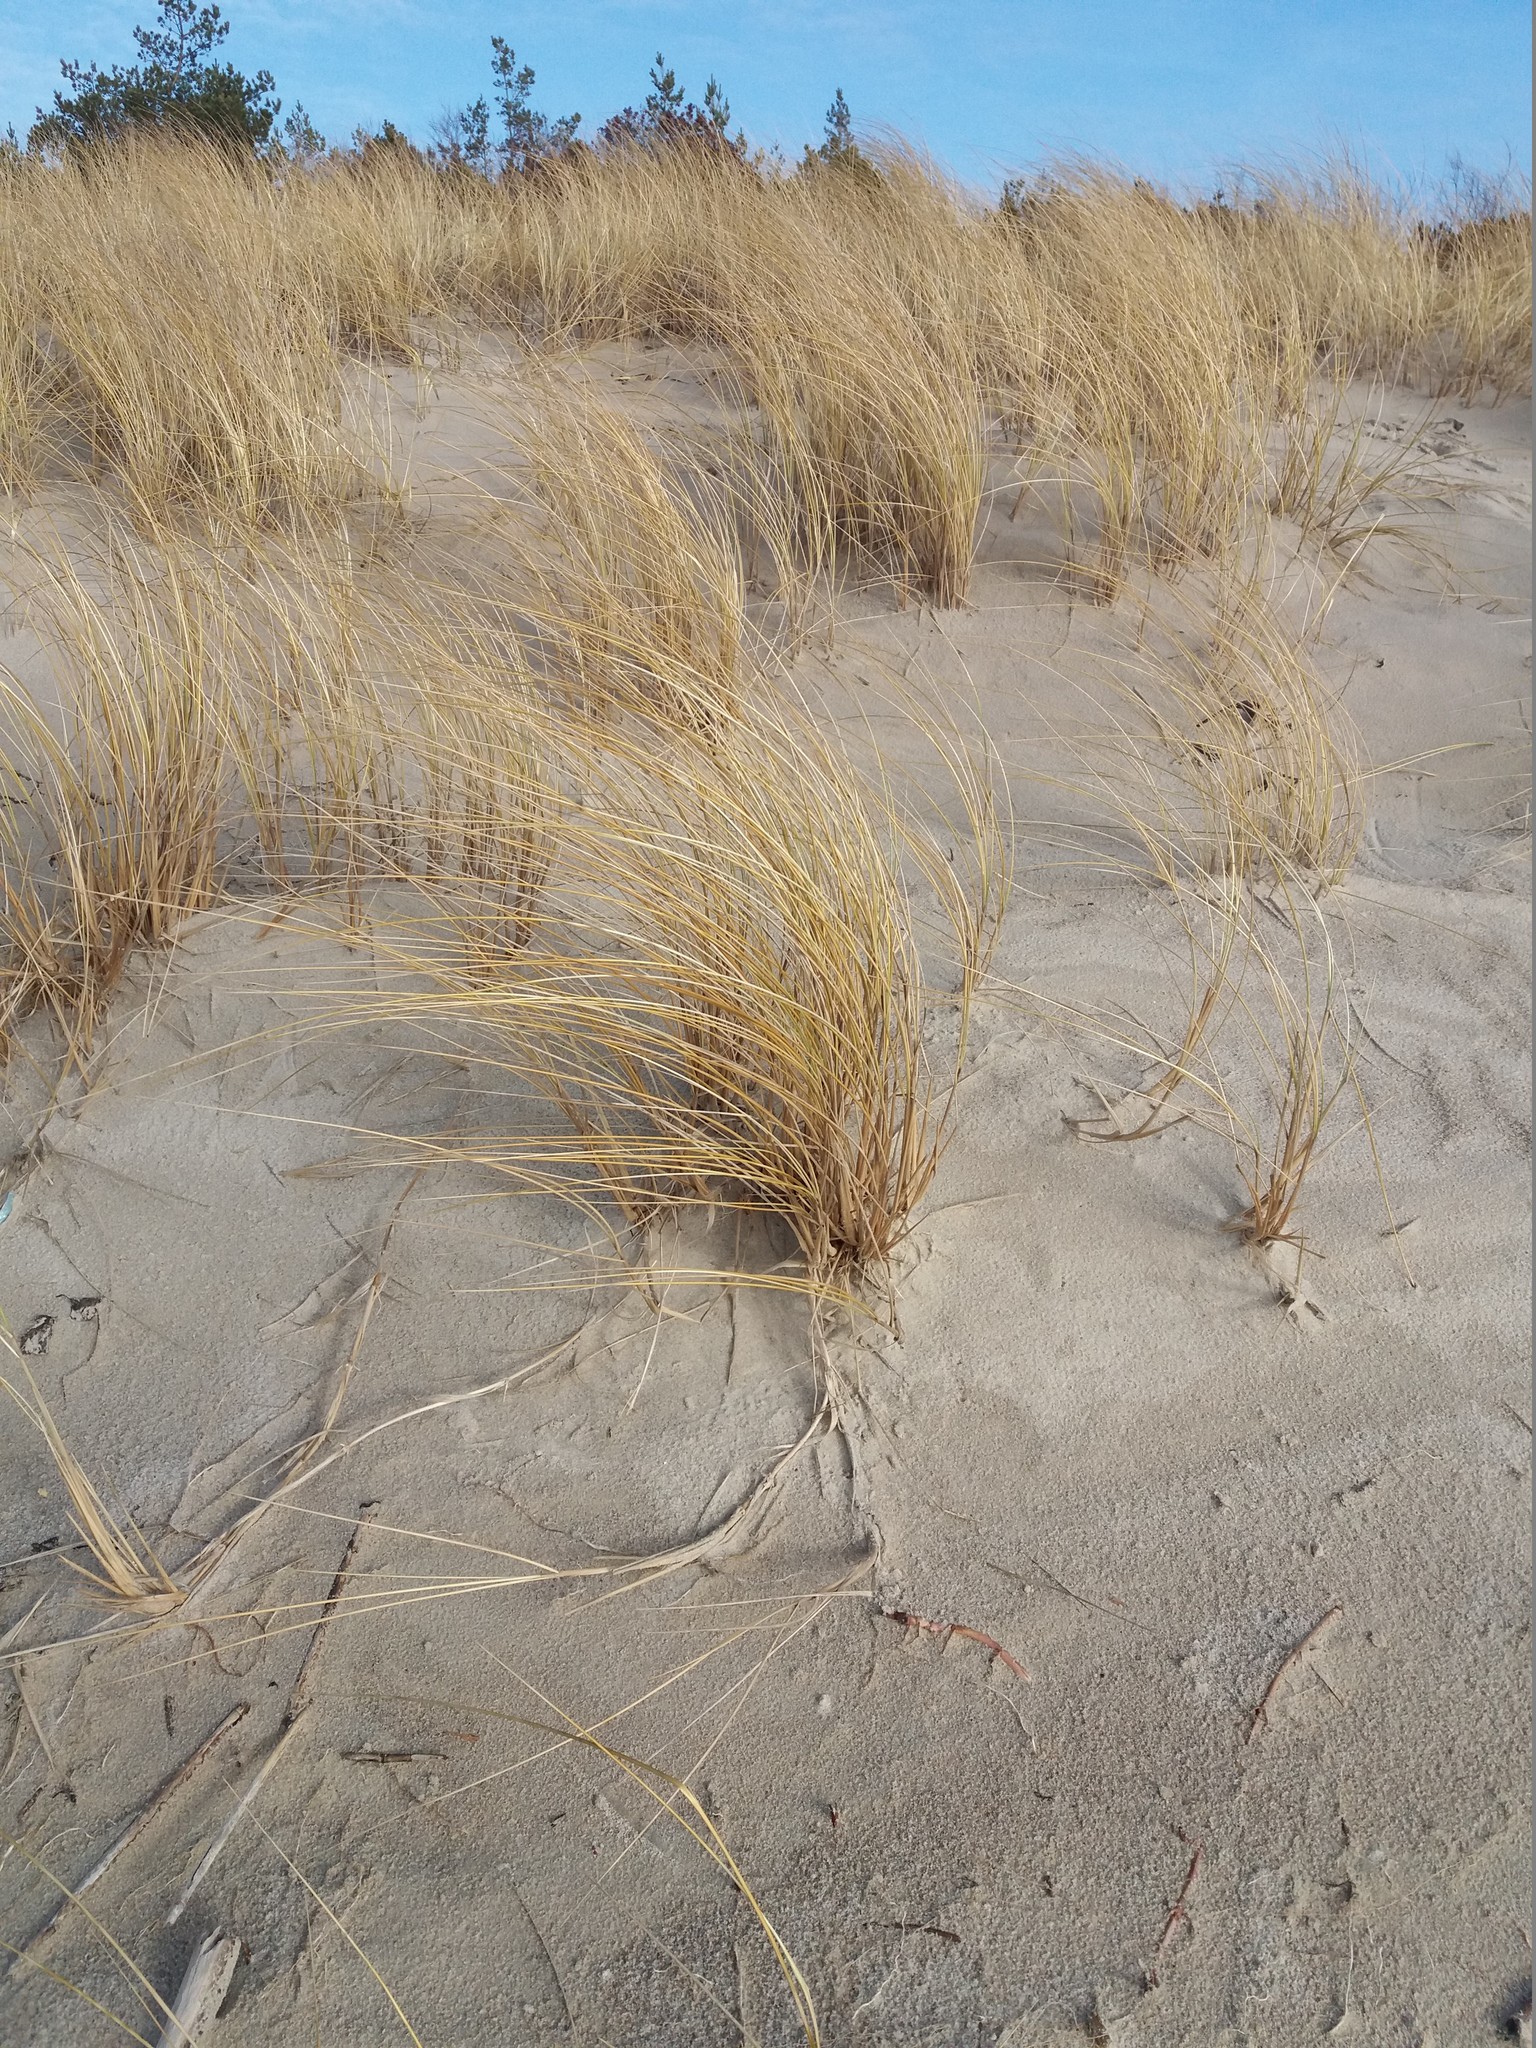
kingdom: Plantae
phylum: Tracheophyta
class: Liliopsida
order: Poales
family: Poaceae
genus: Calamagrostis
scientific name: Calamagrostis arenaria
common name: European beachgrass
